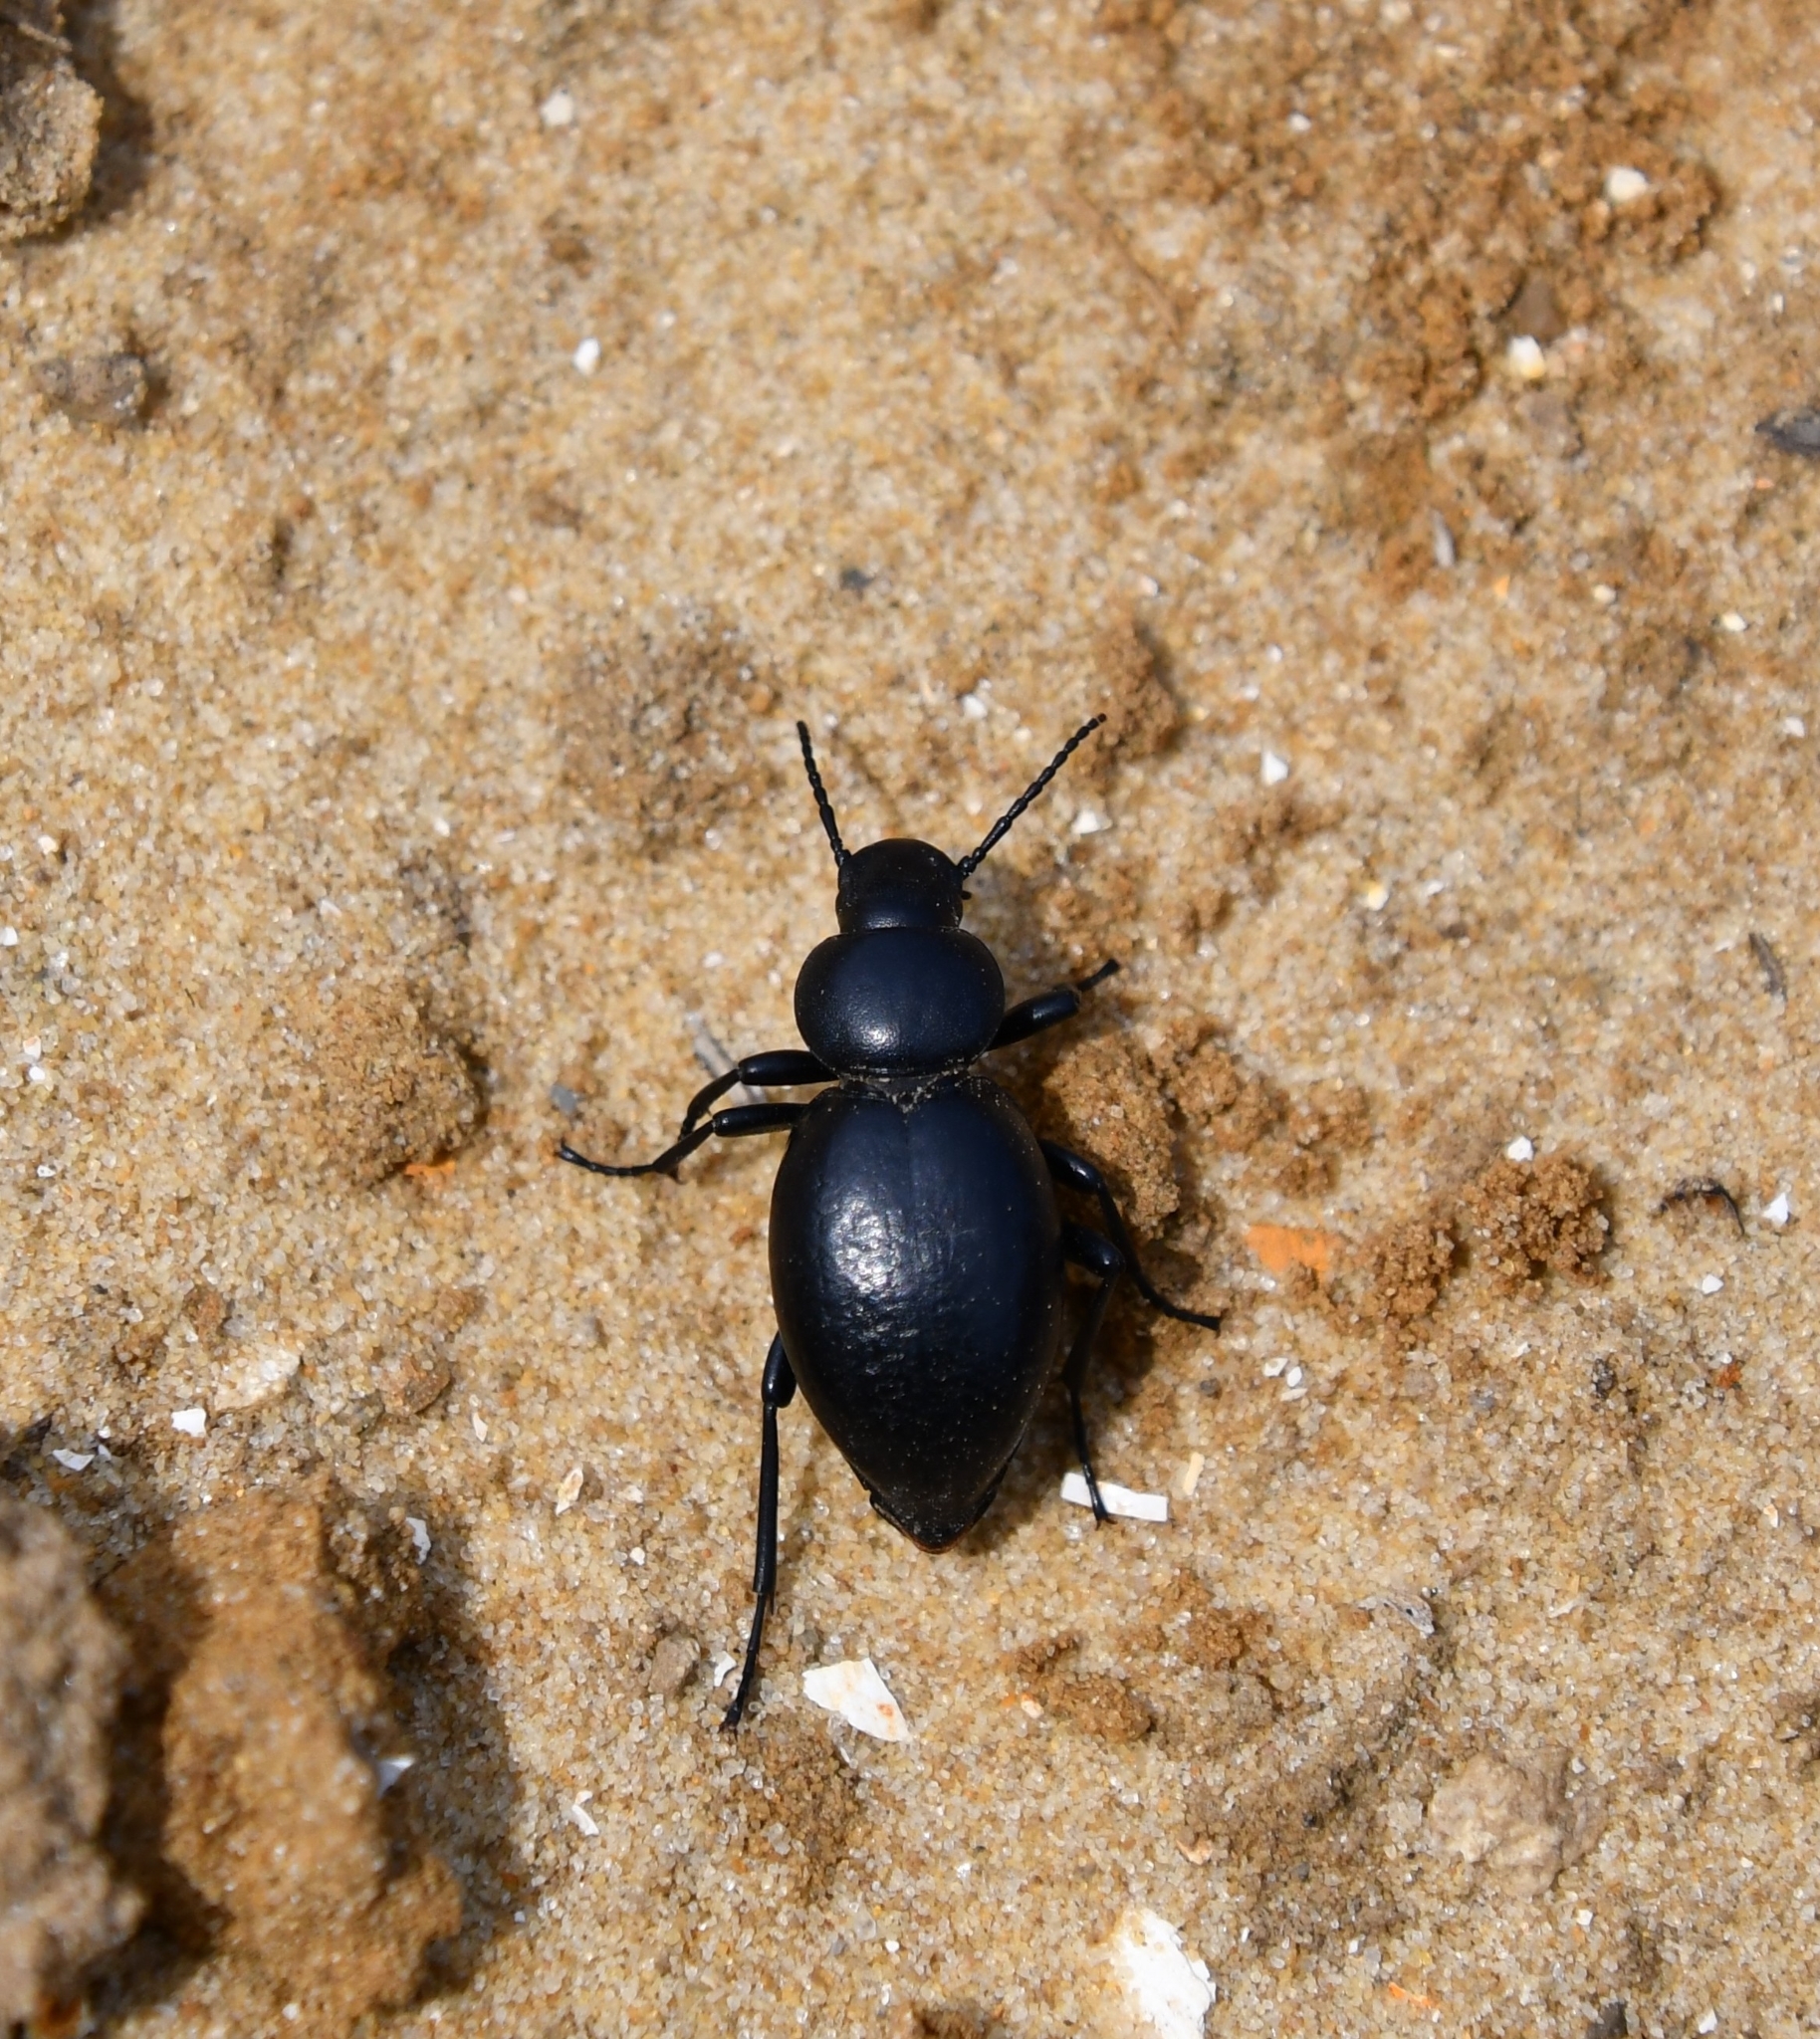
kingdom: Animalia
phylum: Arthropoda
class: Insecta
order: Coleoptera
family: Tenebrionidae
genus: Tentyria
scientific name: Tentyria nomas
